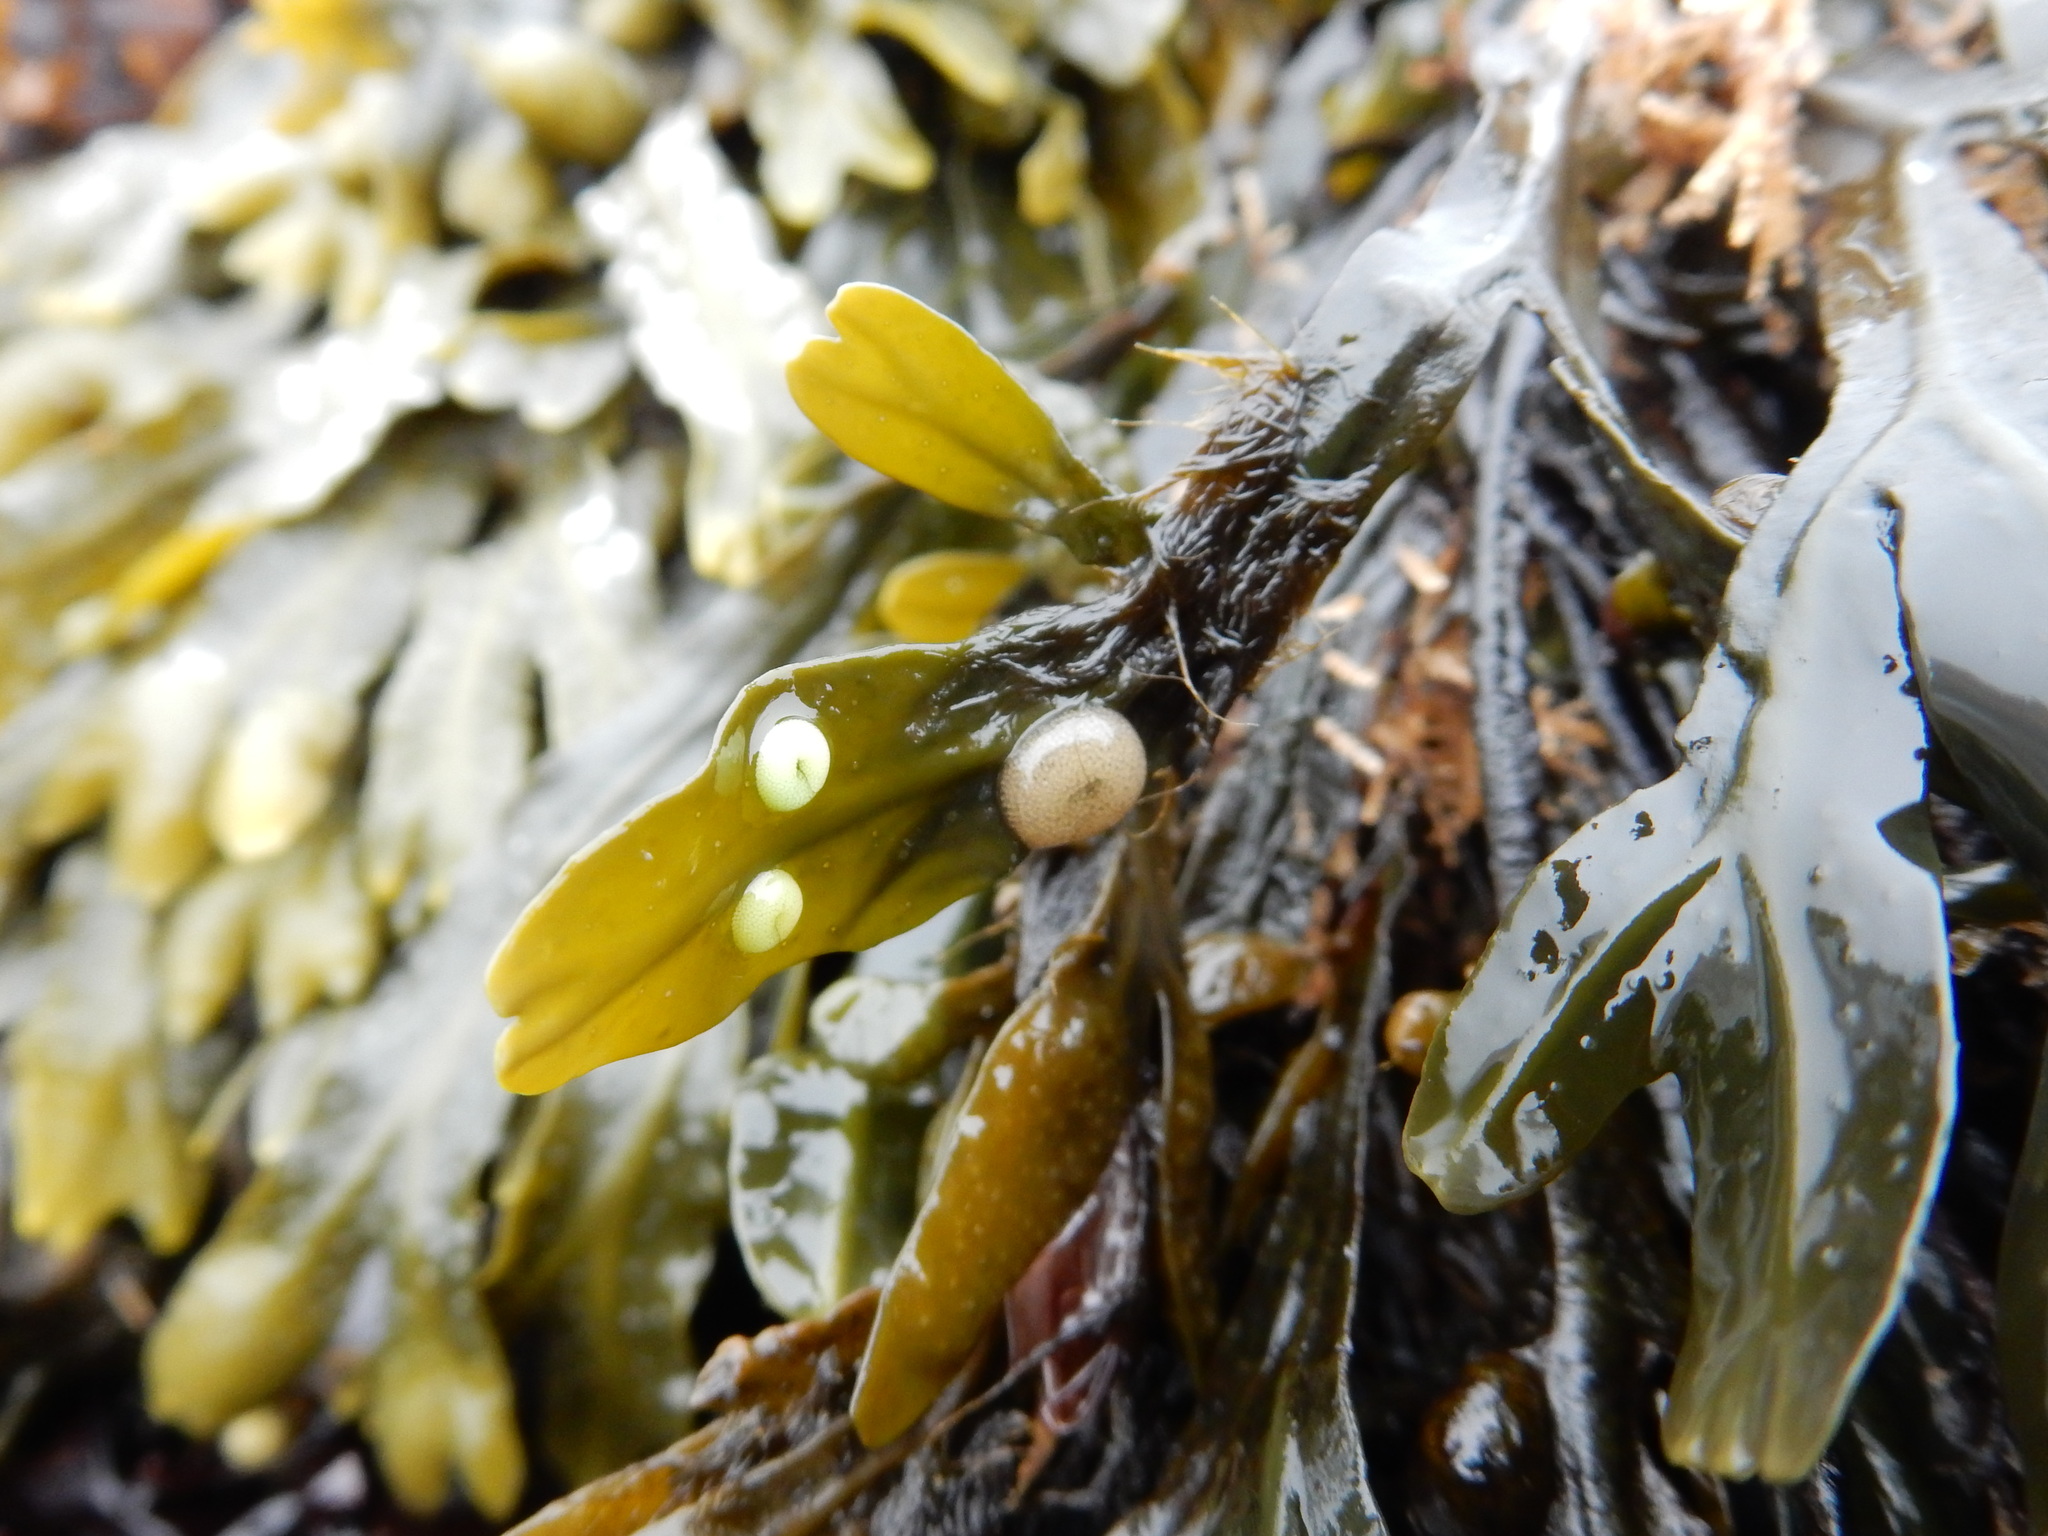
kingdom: Animalia
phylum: Mollusca
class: Gastropoda
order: Littorinimorpha
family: Littorinidae
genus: Lacuna
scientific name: Lacuna vincta
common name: Banded chink shell
